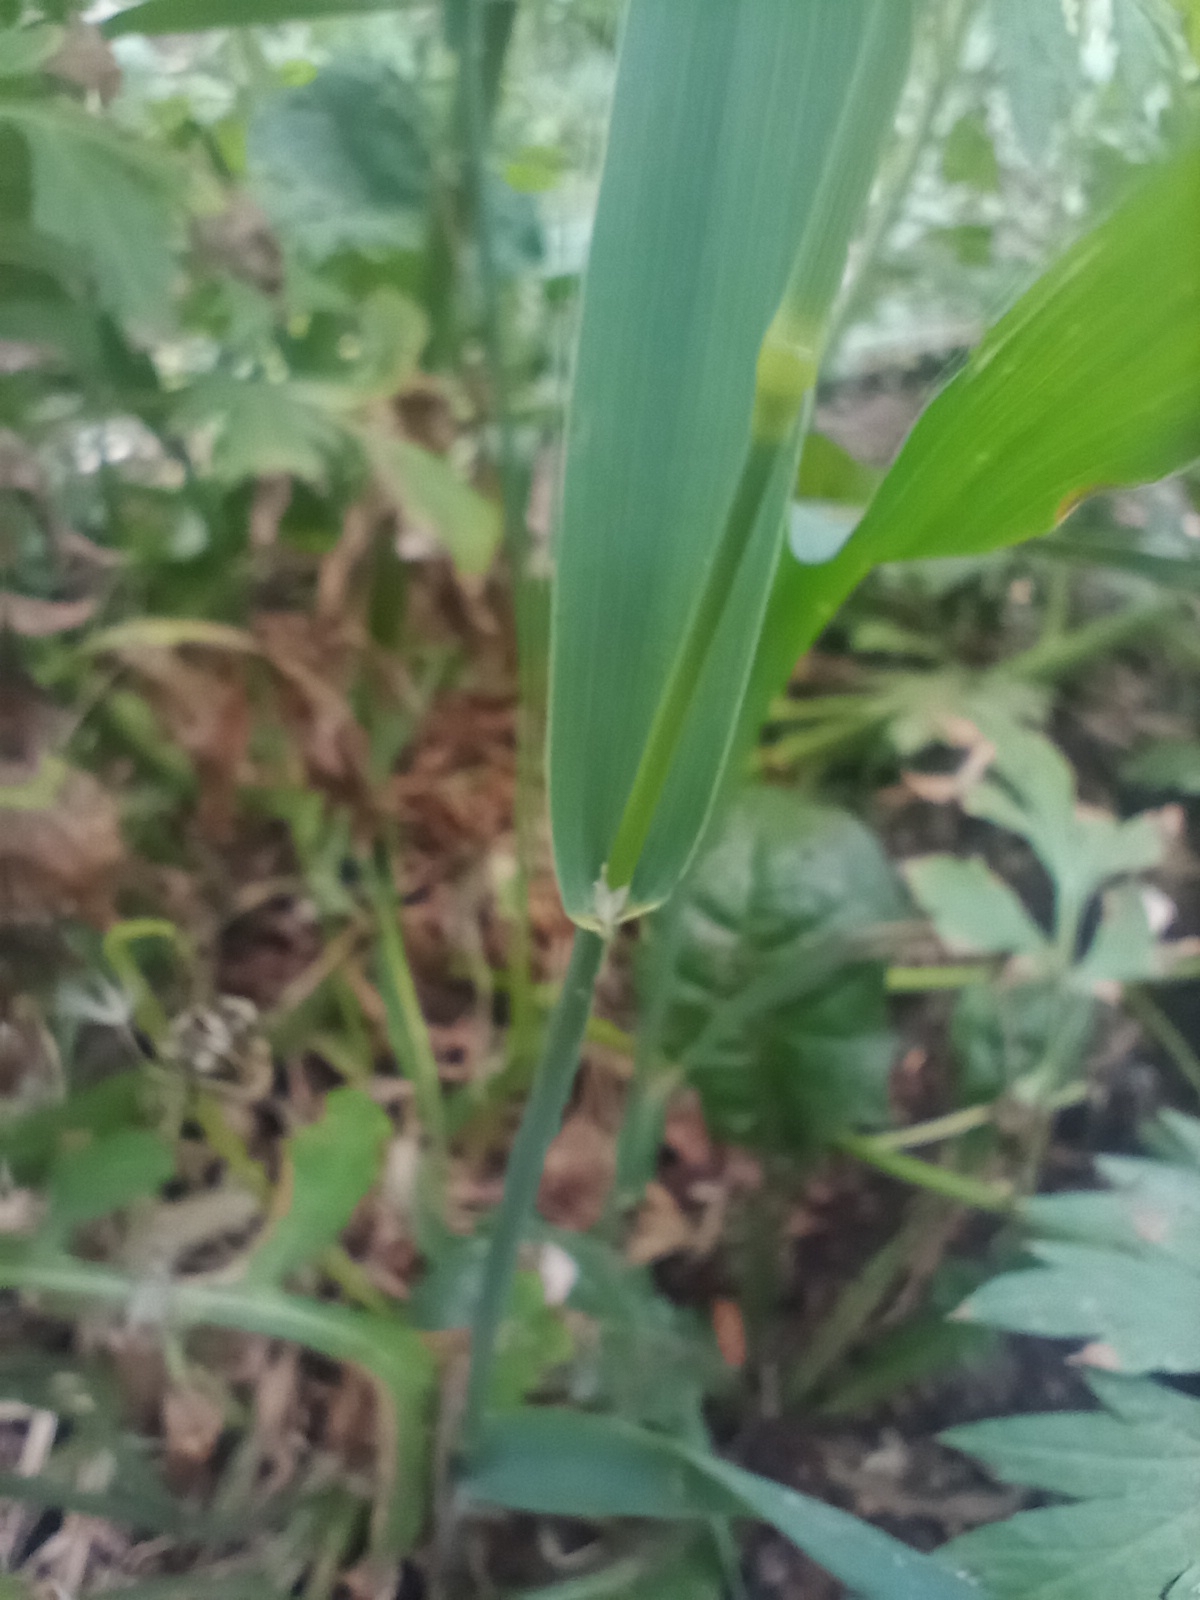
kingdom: Plantae
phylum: Tracheophyta
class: Liliopsida
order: Poales
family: Poaceae
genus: Phleum
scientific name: Phleum pratense
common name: Timothy grass
